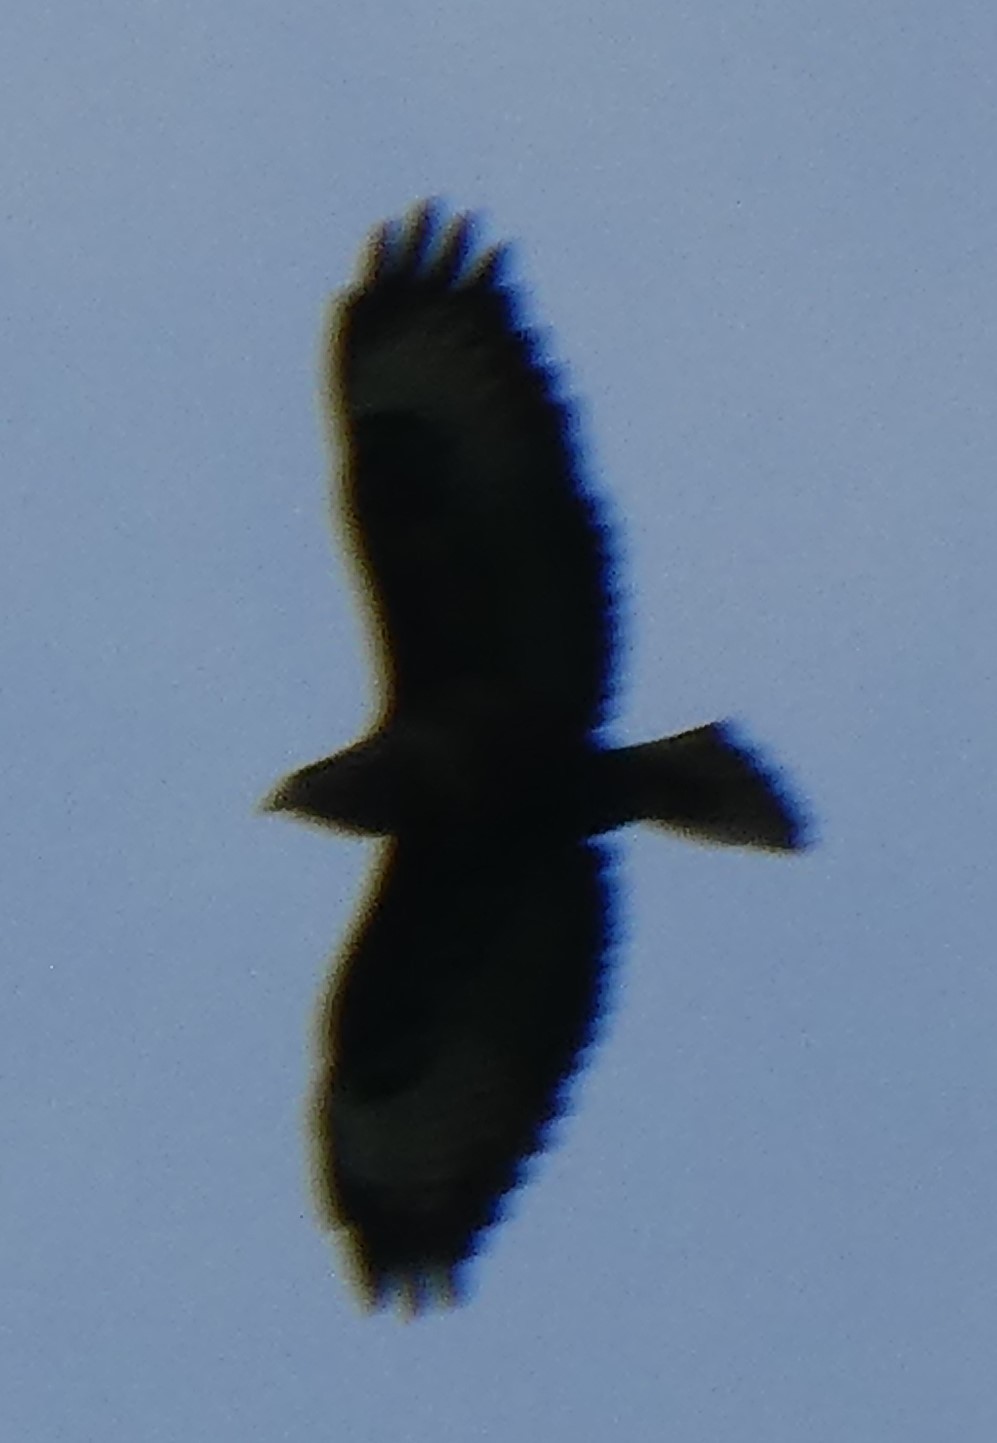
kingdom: Animalia
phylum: Chordata
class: Aves
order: Accipitriformes
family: Accipitridae
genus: Buteo
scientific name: Buteo buteo
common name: Common buzzard
